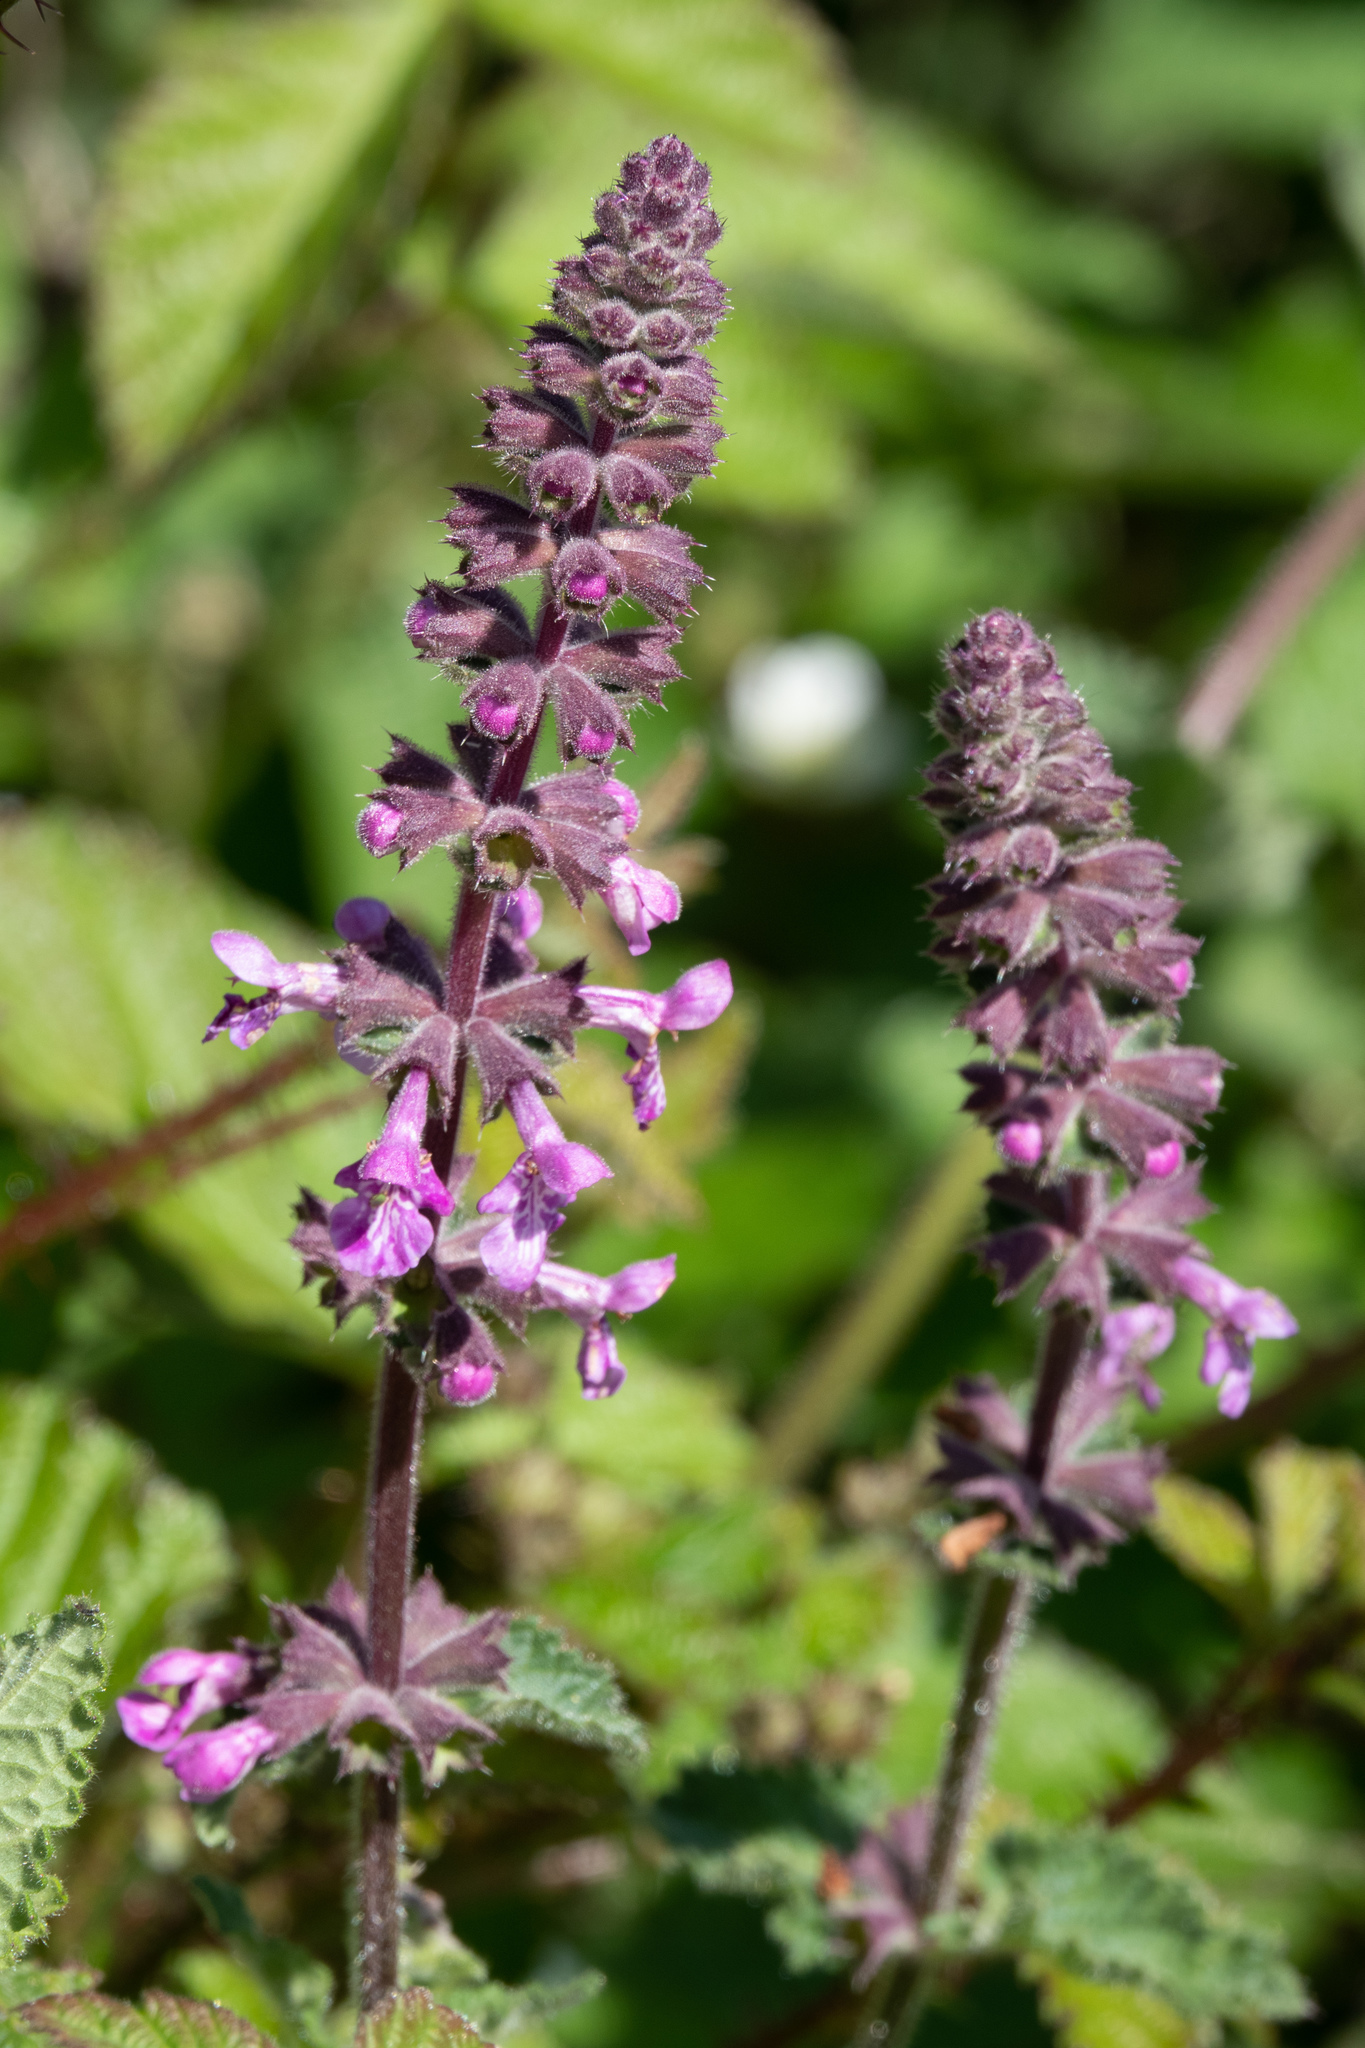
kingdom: Plantae
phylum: Tracheophyta
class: Magnoliopsida
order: Lamiales
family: Lamiaceae
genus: Stachys
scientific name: Stachys bullata
